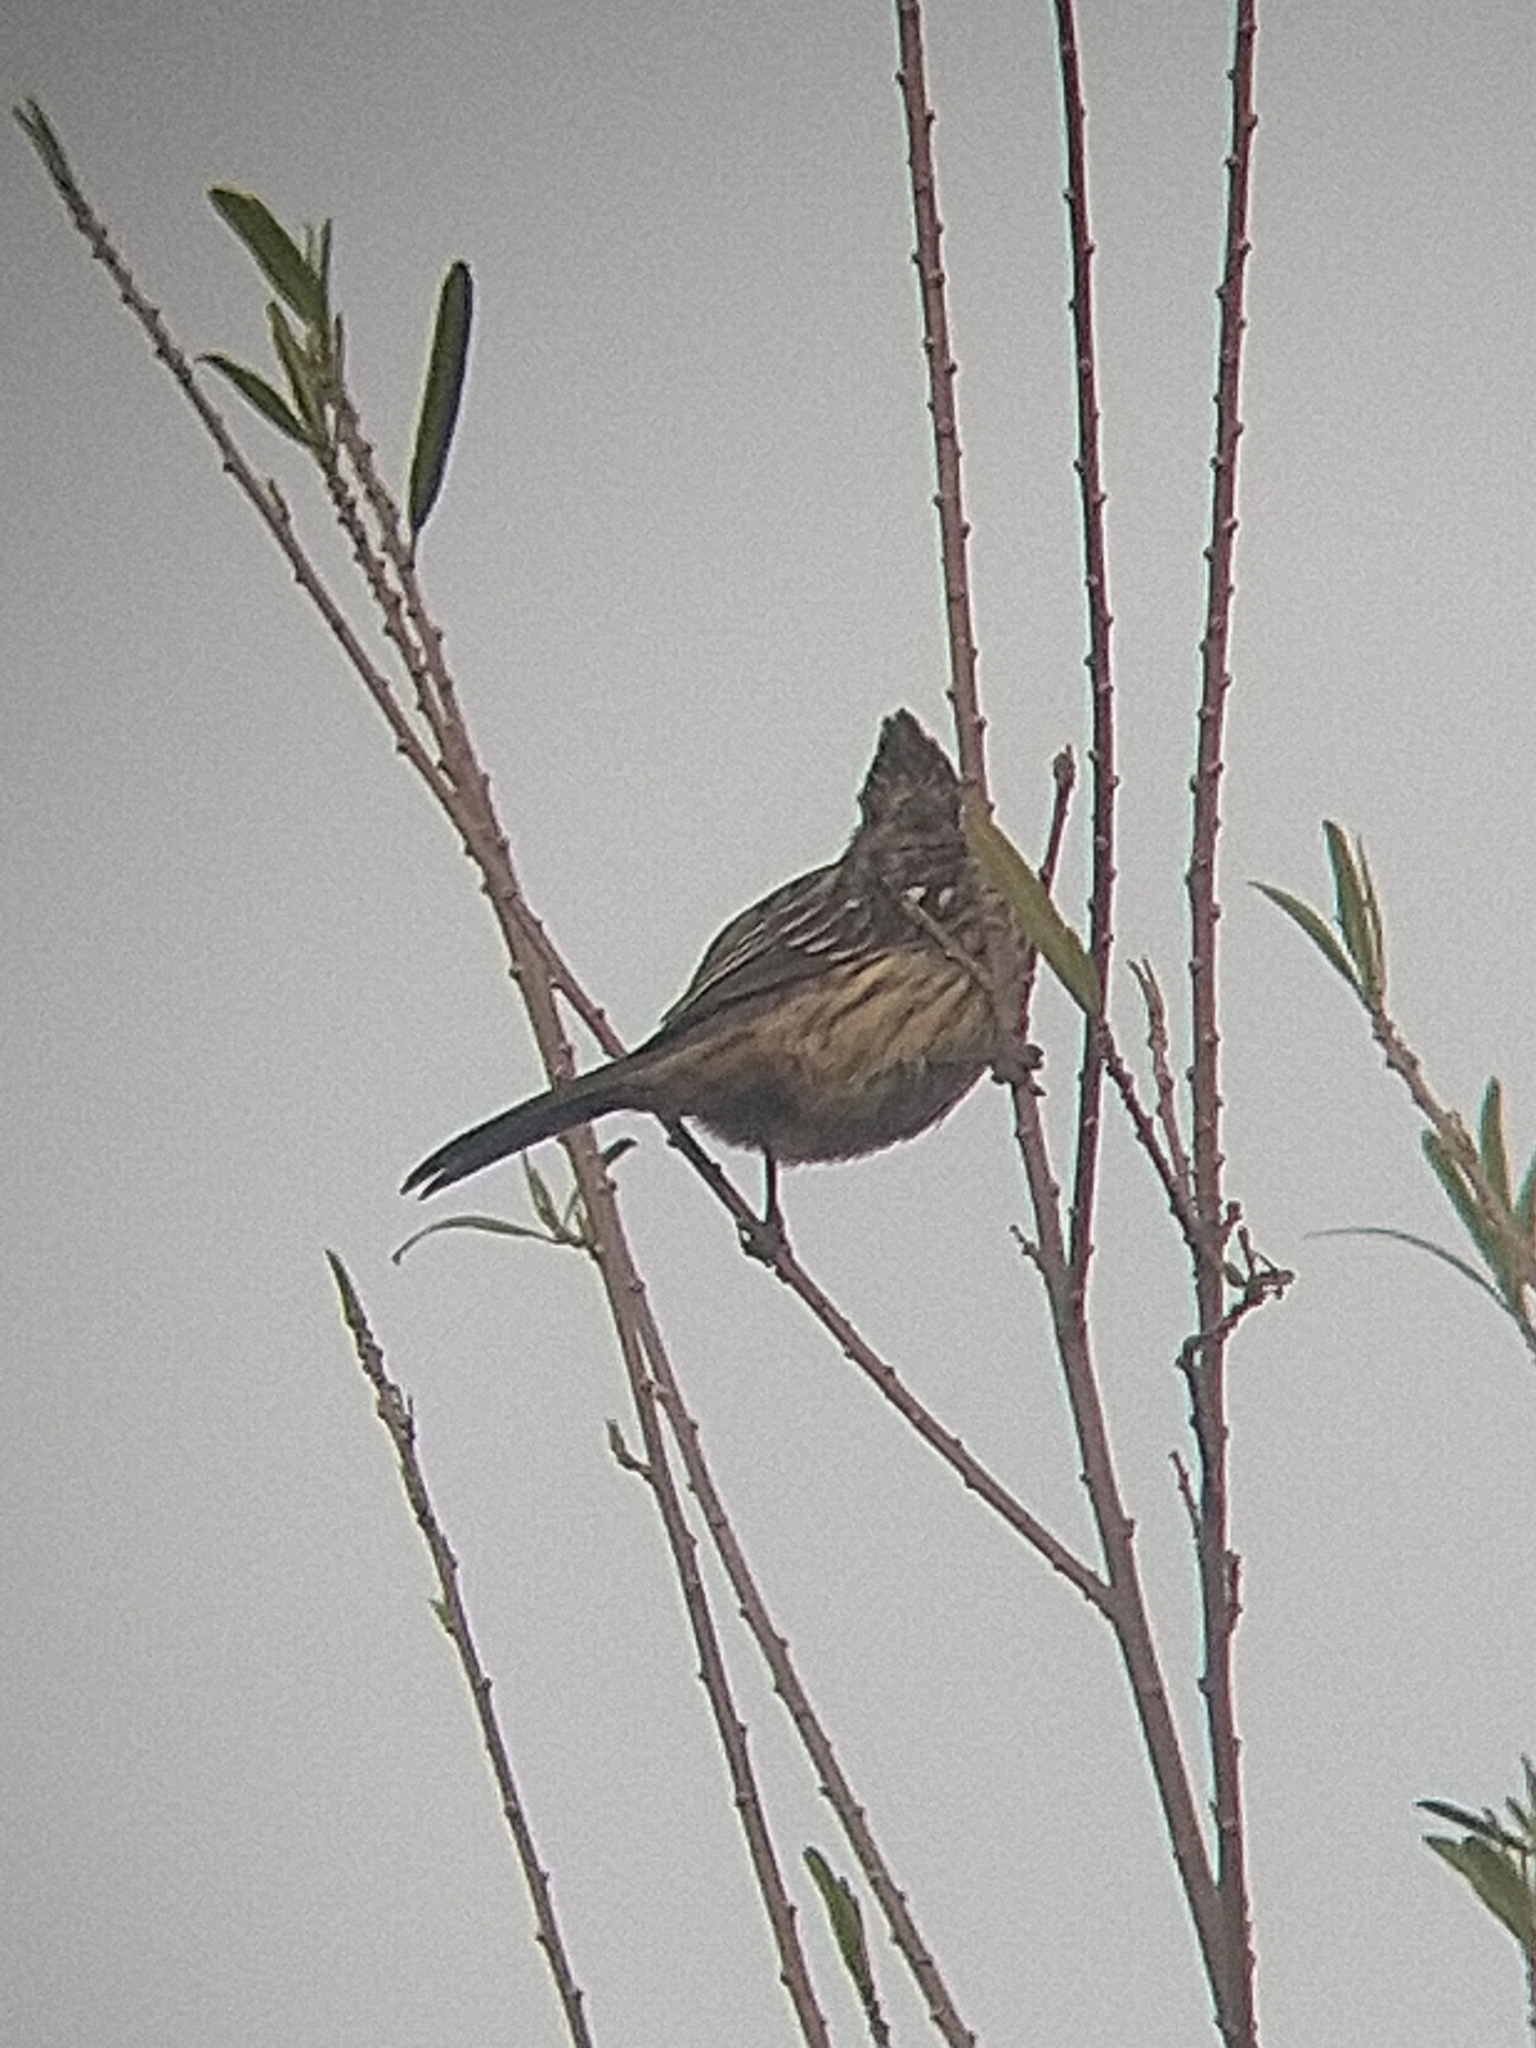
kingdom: Animalia
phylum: Chordata
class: Aves
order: Passeriformes
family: Cotingidae
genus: Phytotoma
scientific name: Phytotoma rutila
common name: White-tipped plantcutter
